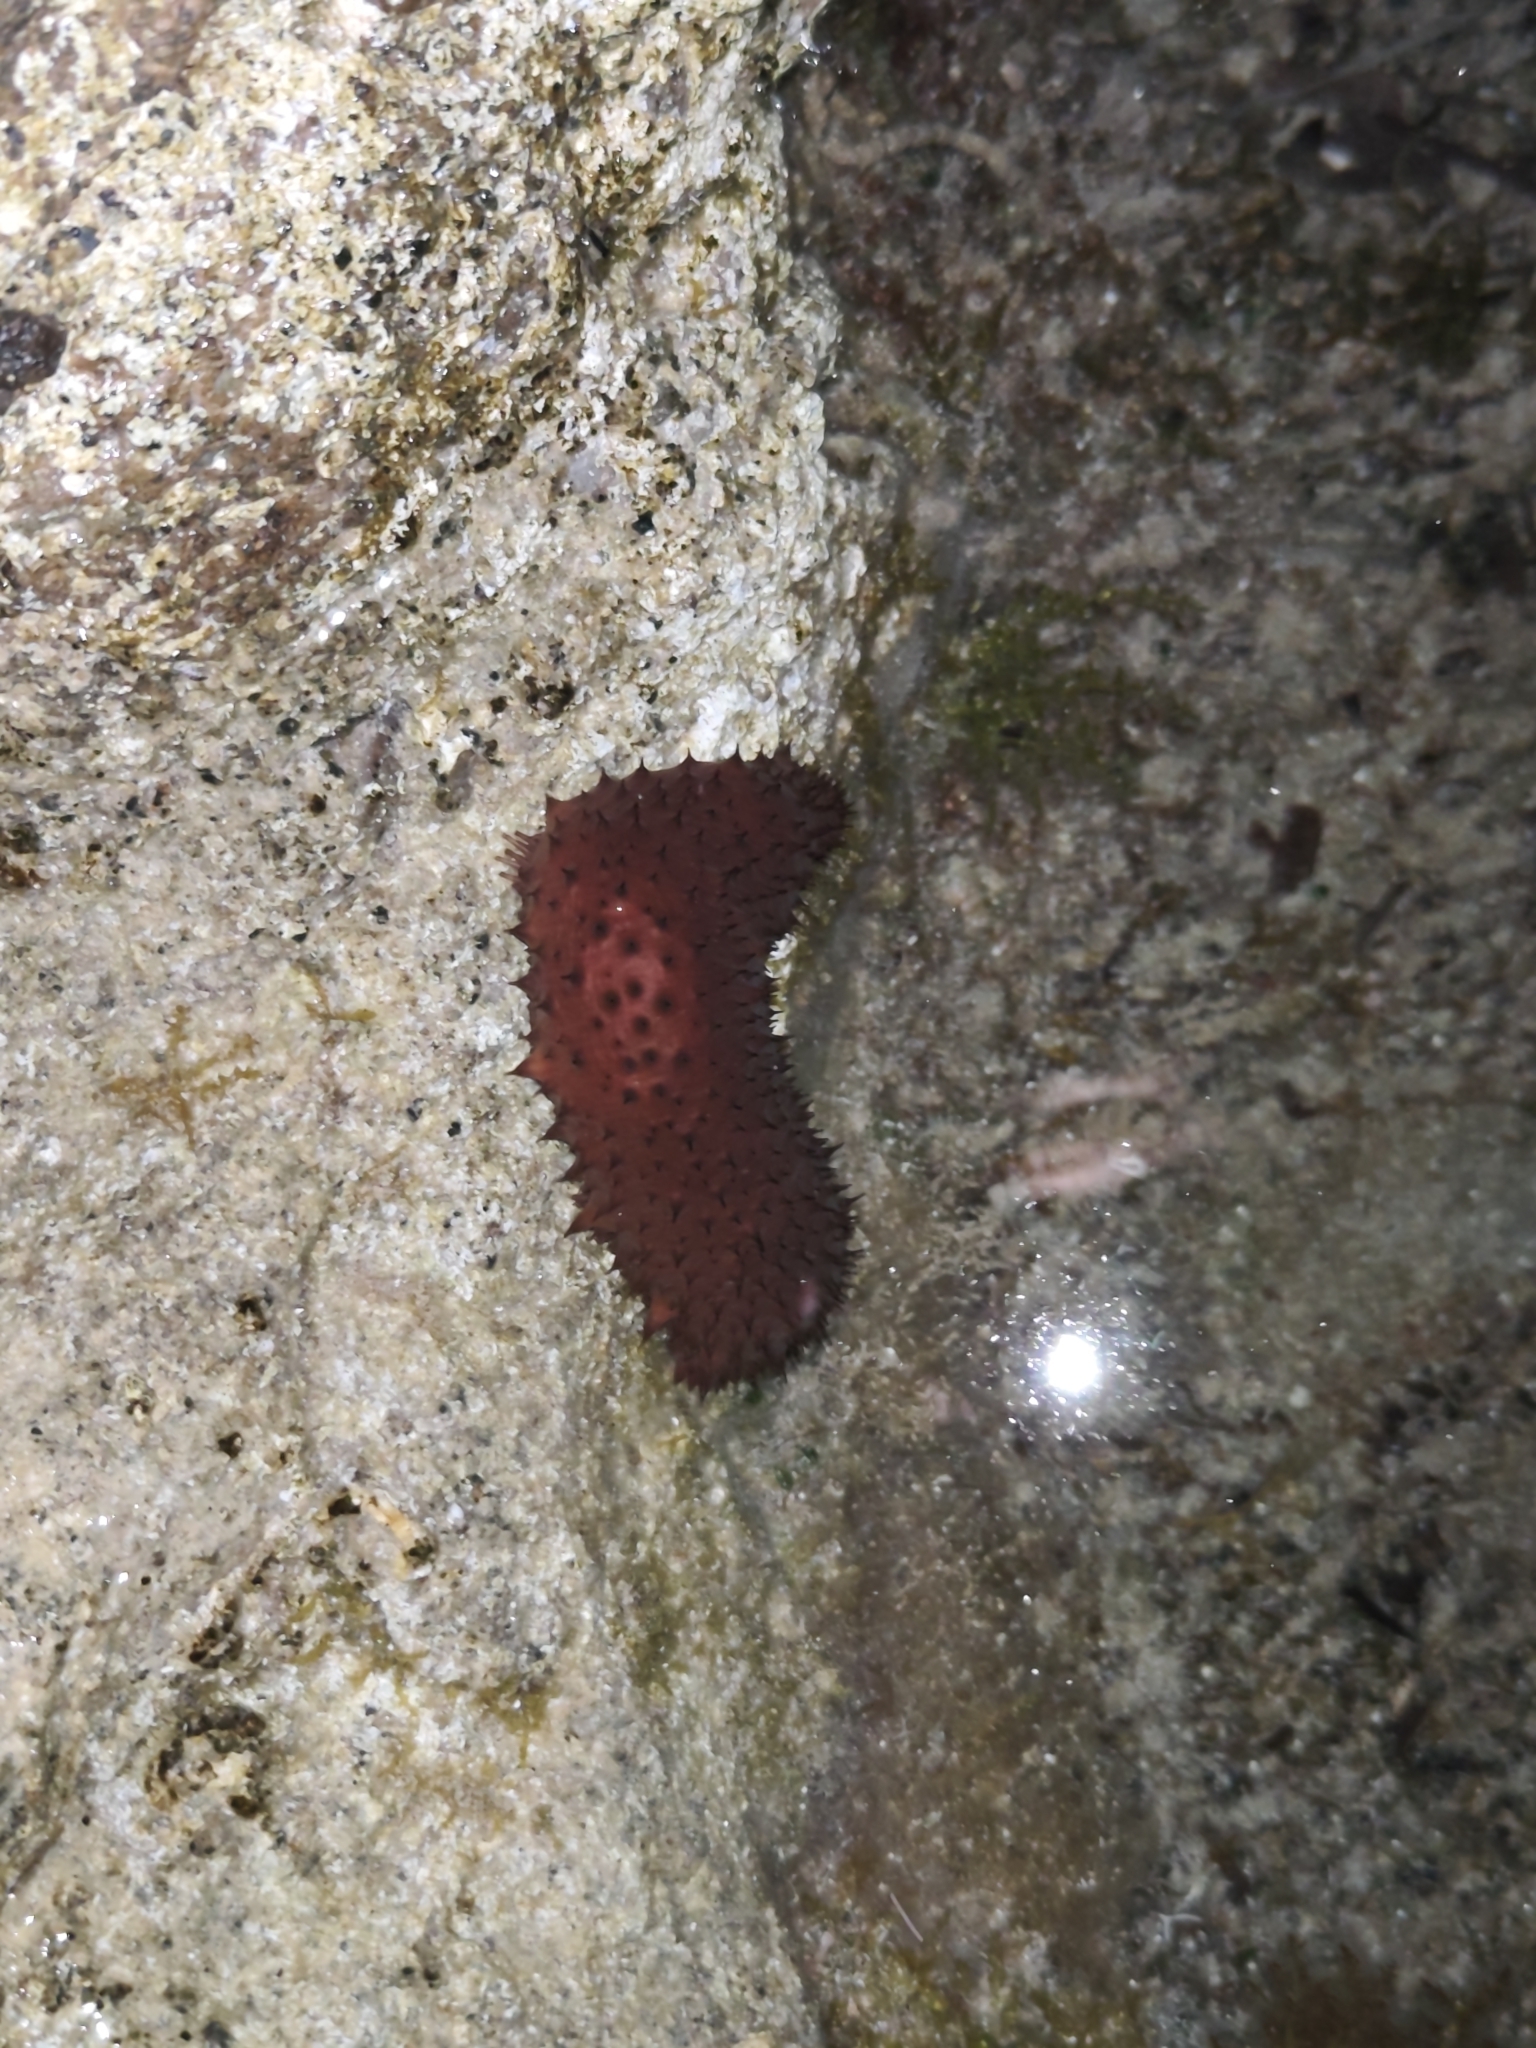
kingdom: Animalia
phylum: Echinodermata
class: Holothuroidea
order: Holothuriida
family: Holothuriidae
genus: Holothuria
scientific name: Holothuria sanctori
